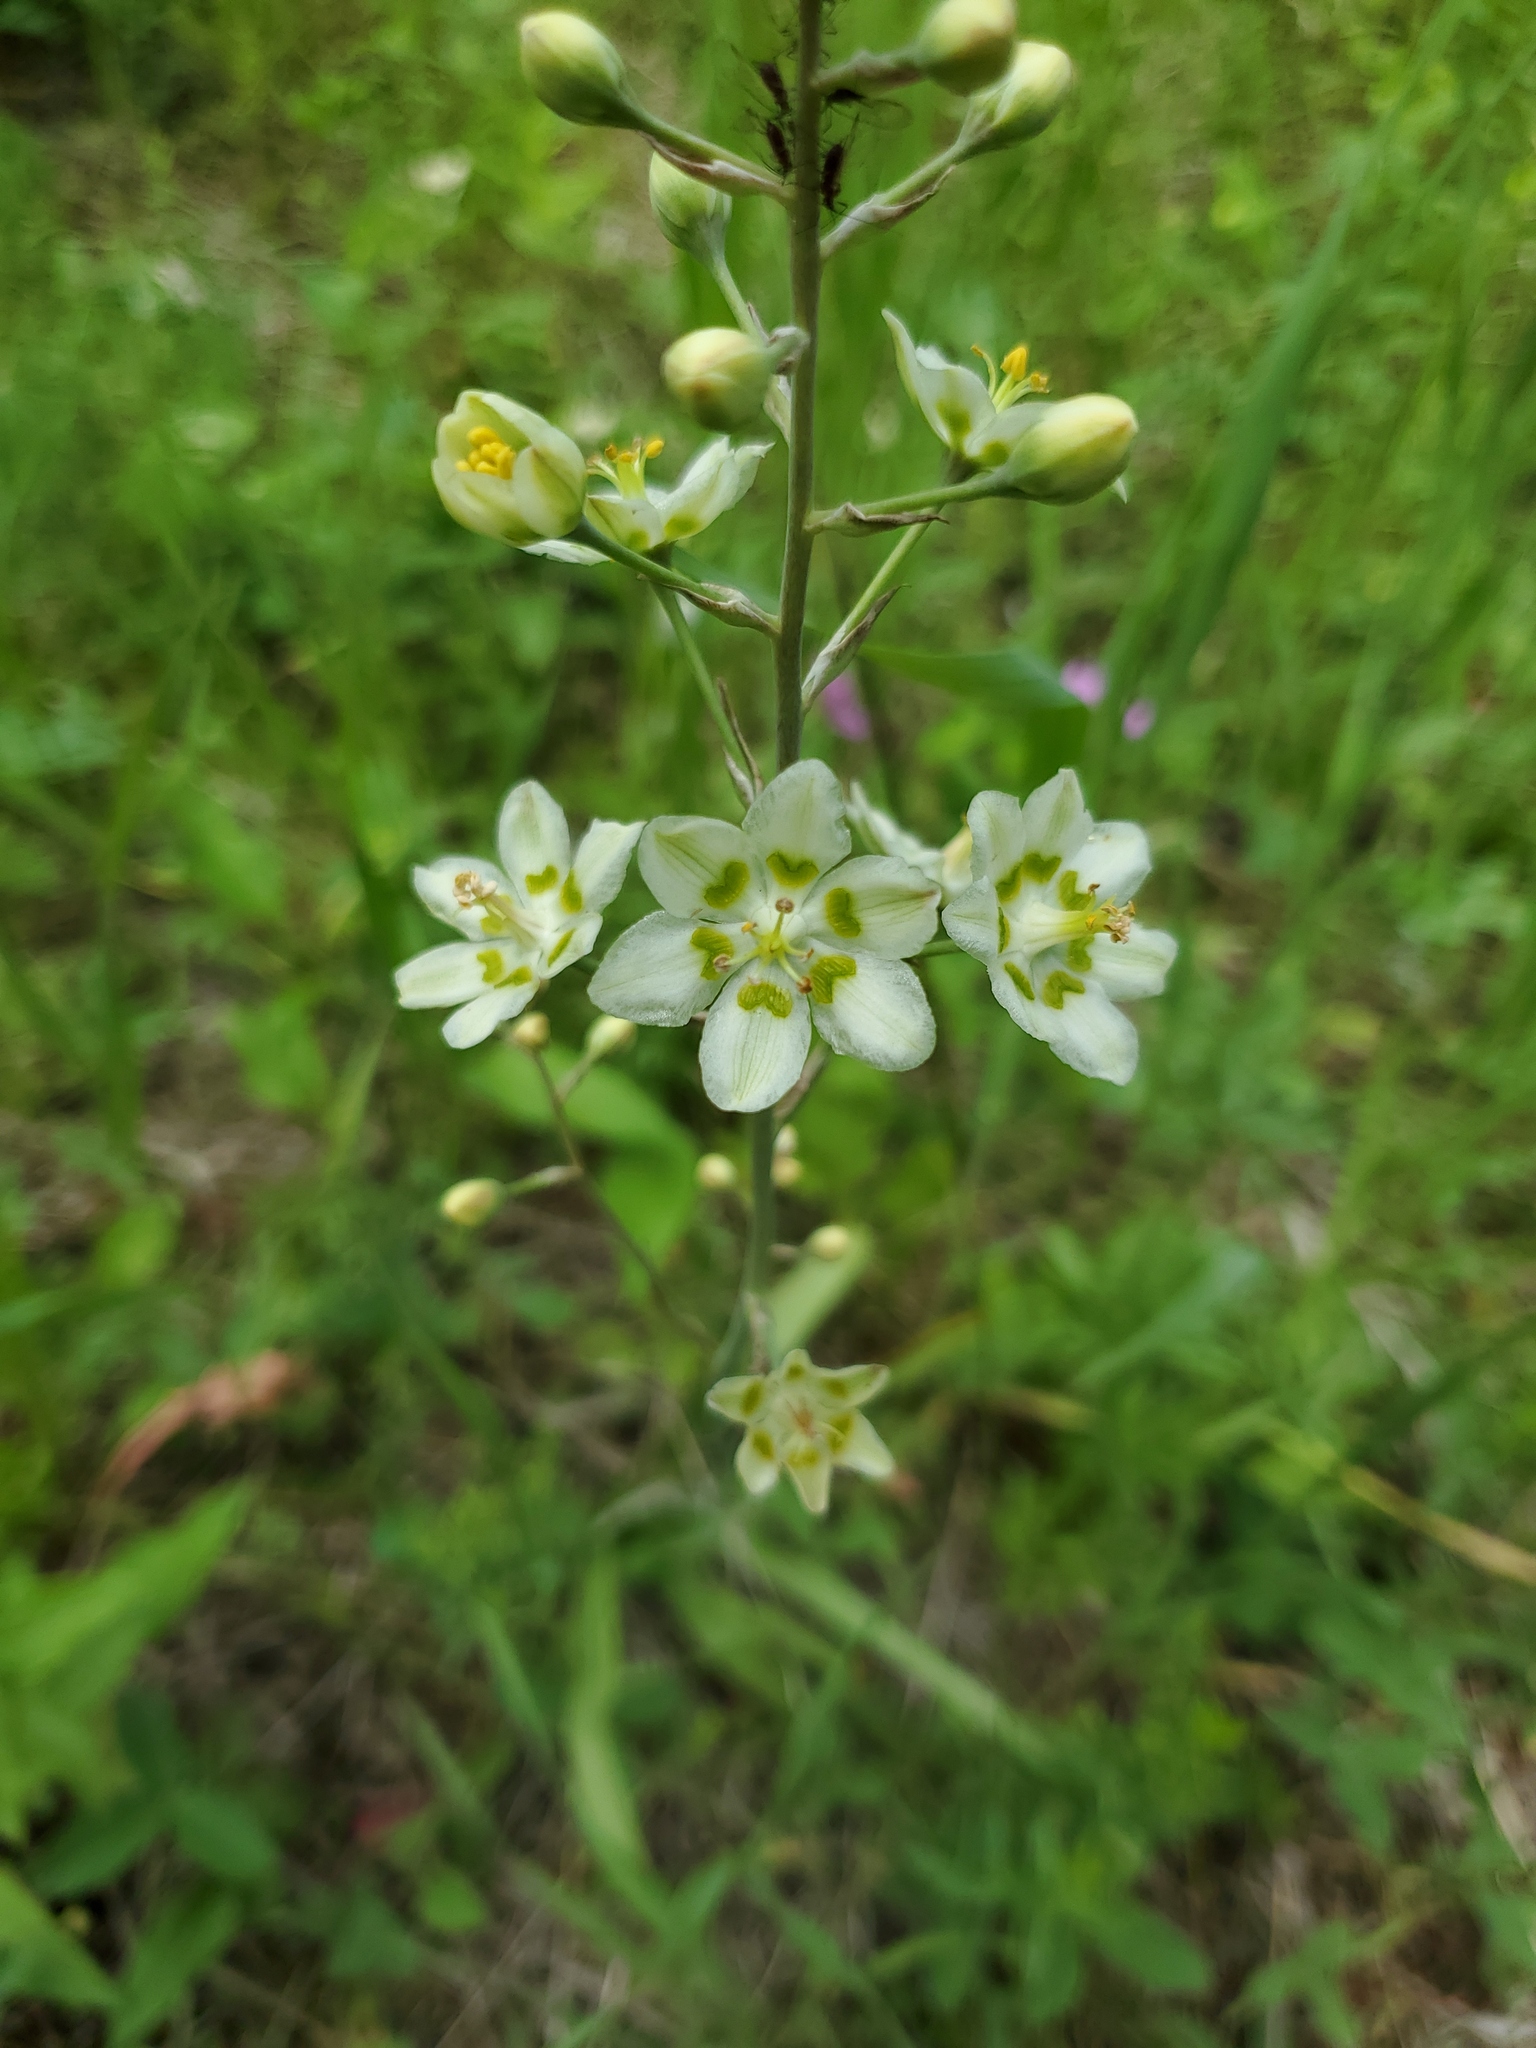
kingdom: Plantae
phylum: Tracheophyta
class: Liliopsida
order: Liliales
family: Melanthiaceae
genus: Anticlea
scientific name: Anticlea elegans
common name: Mountain death camas
